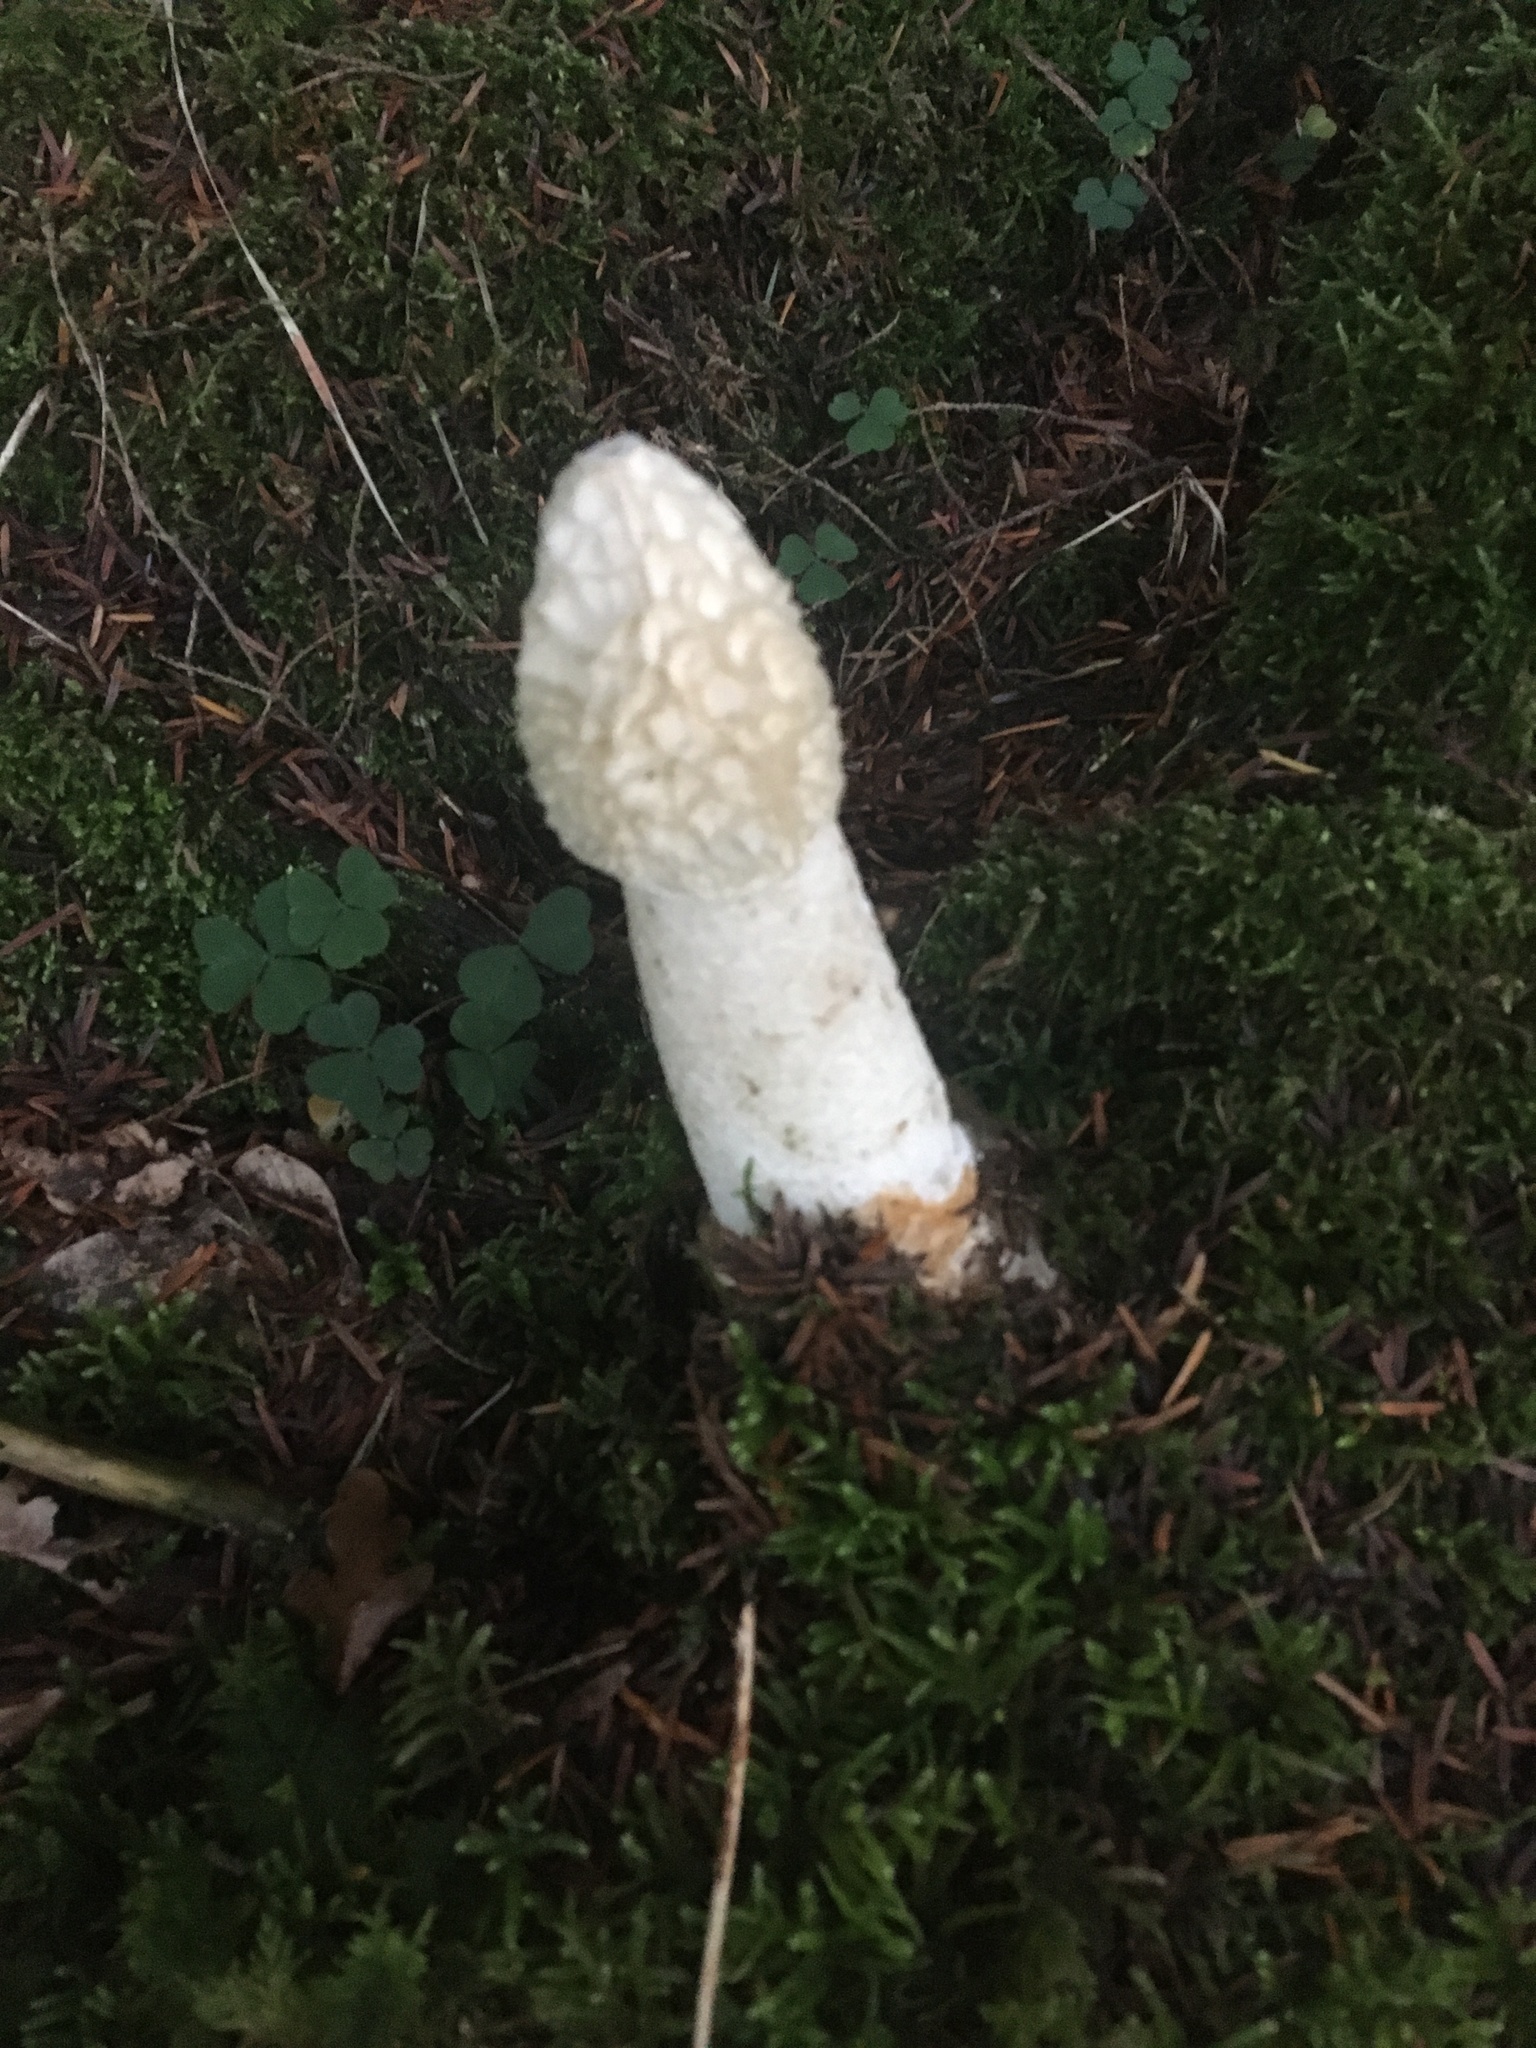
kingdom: Fungi
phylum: Basidiomycota
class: Agaricomycetes
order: Phallales
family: Phallaceae
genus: Phallus
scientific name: Phallus impudicus
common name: Common stinkhorn
